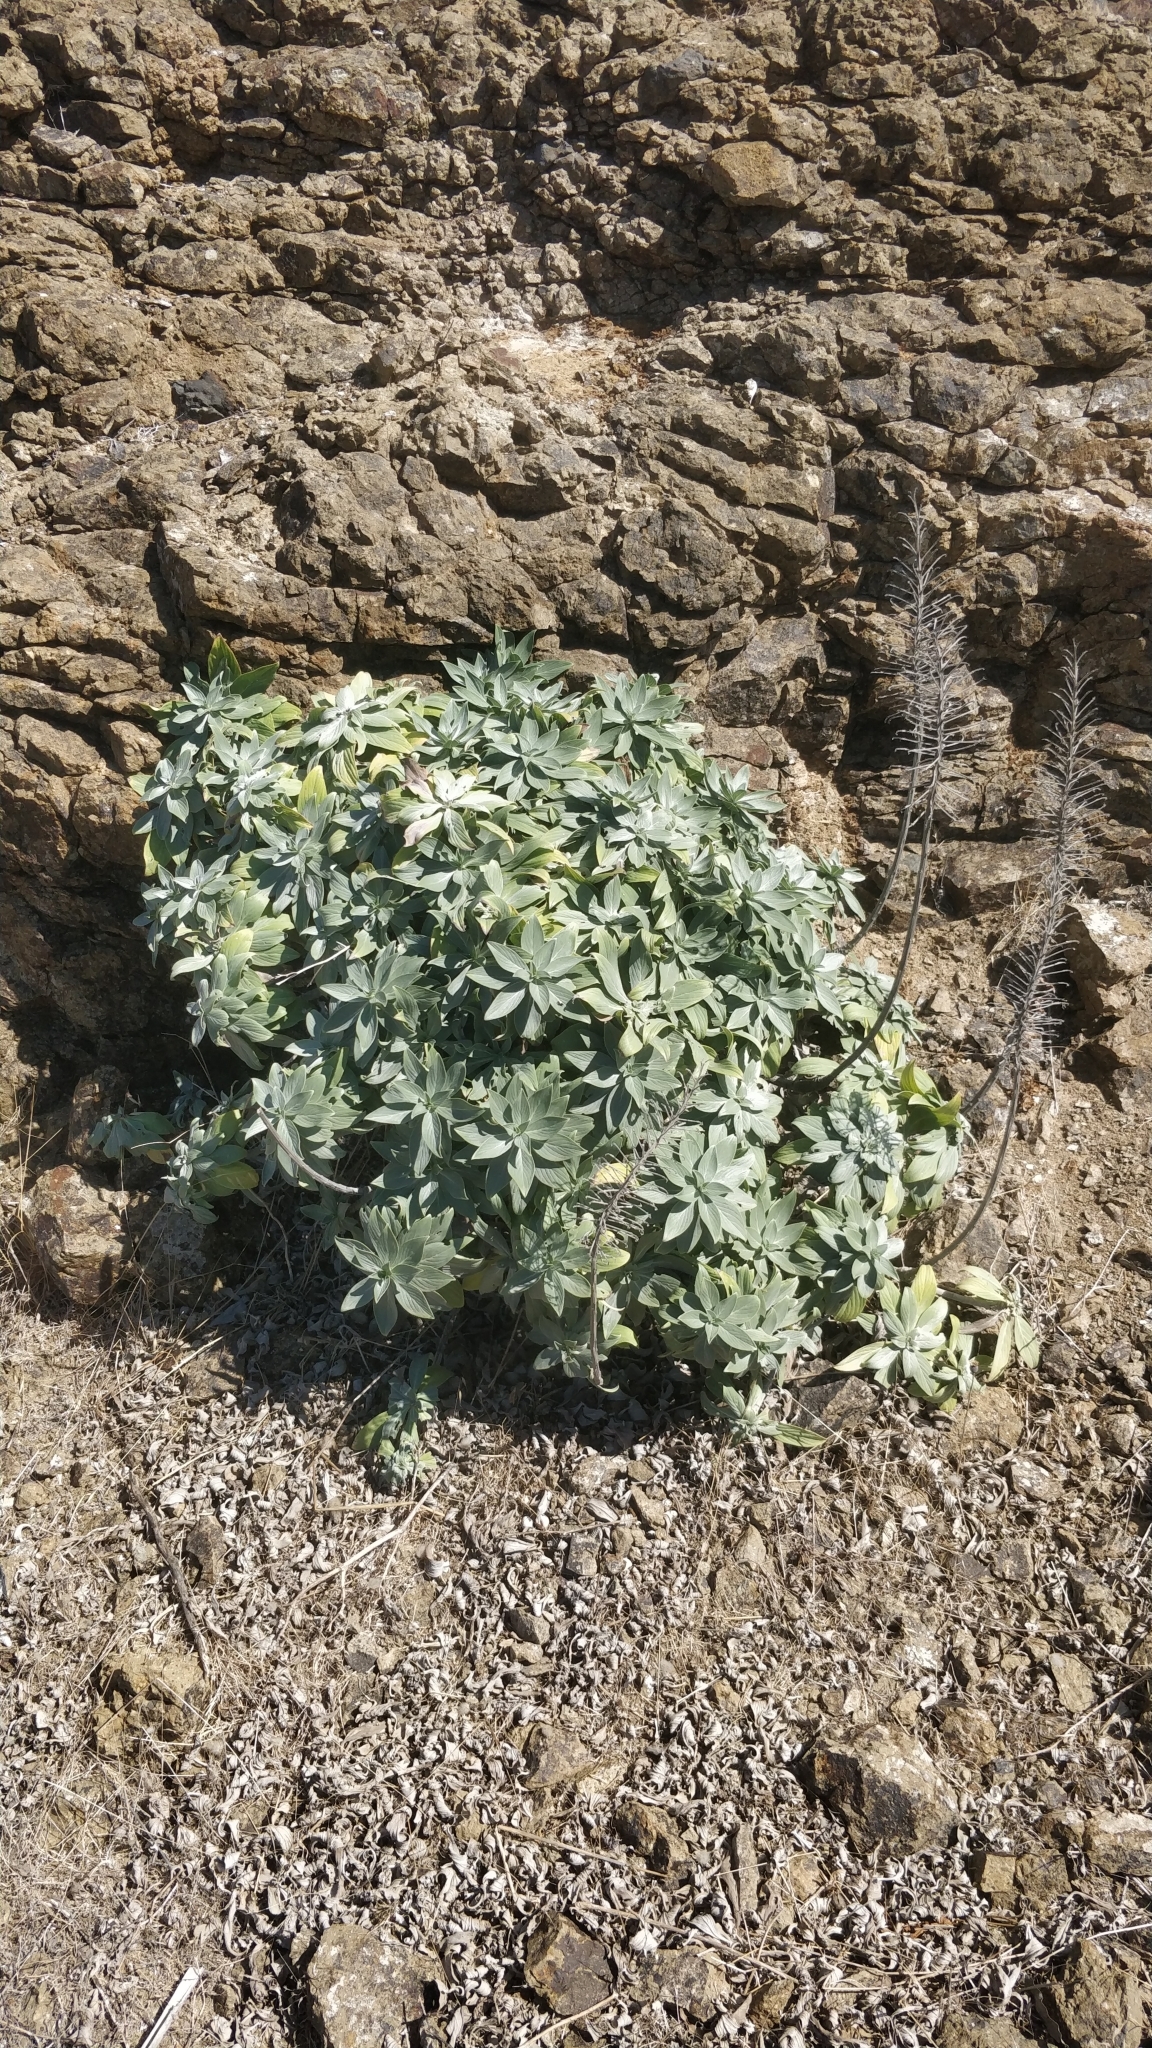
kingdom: Plantae
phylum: Tracheophyta
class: Magnoliopsida
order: Boraginales
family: Boraginaceae
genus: Echium
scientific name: Echium portosanctense
